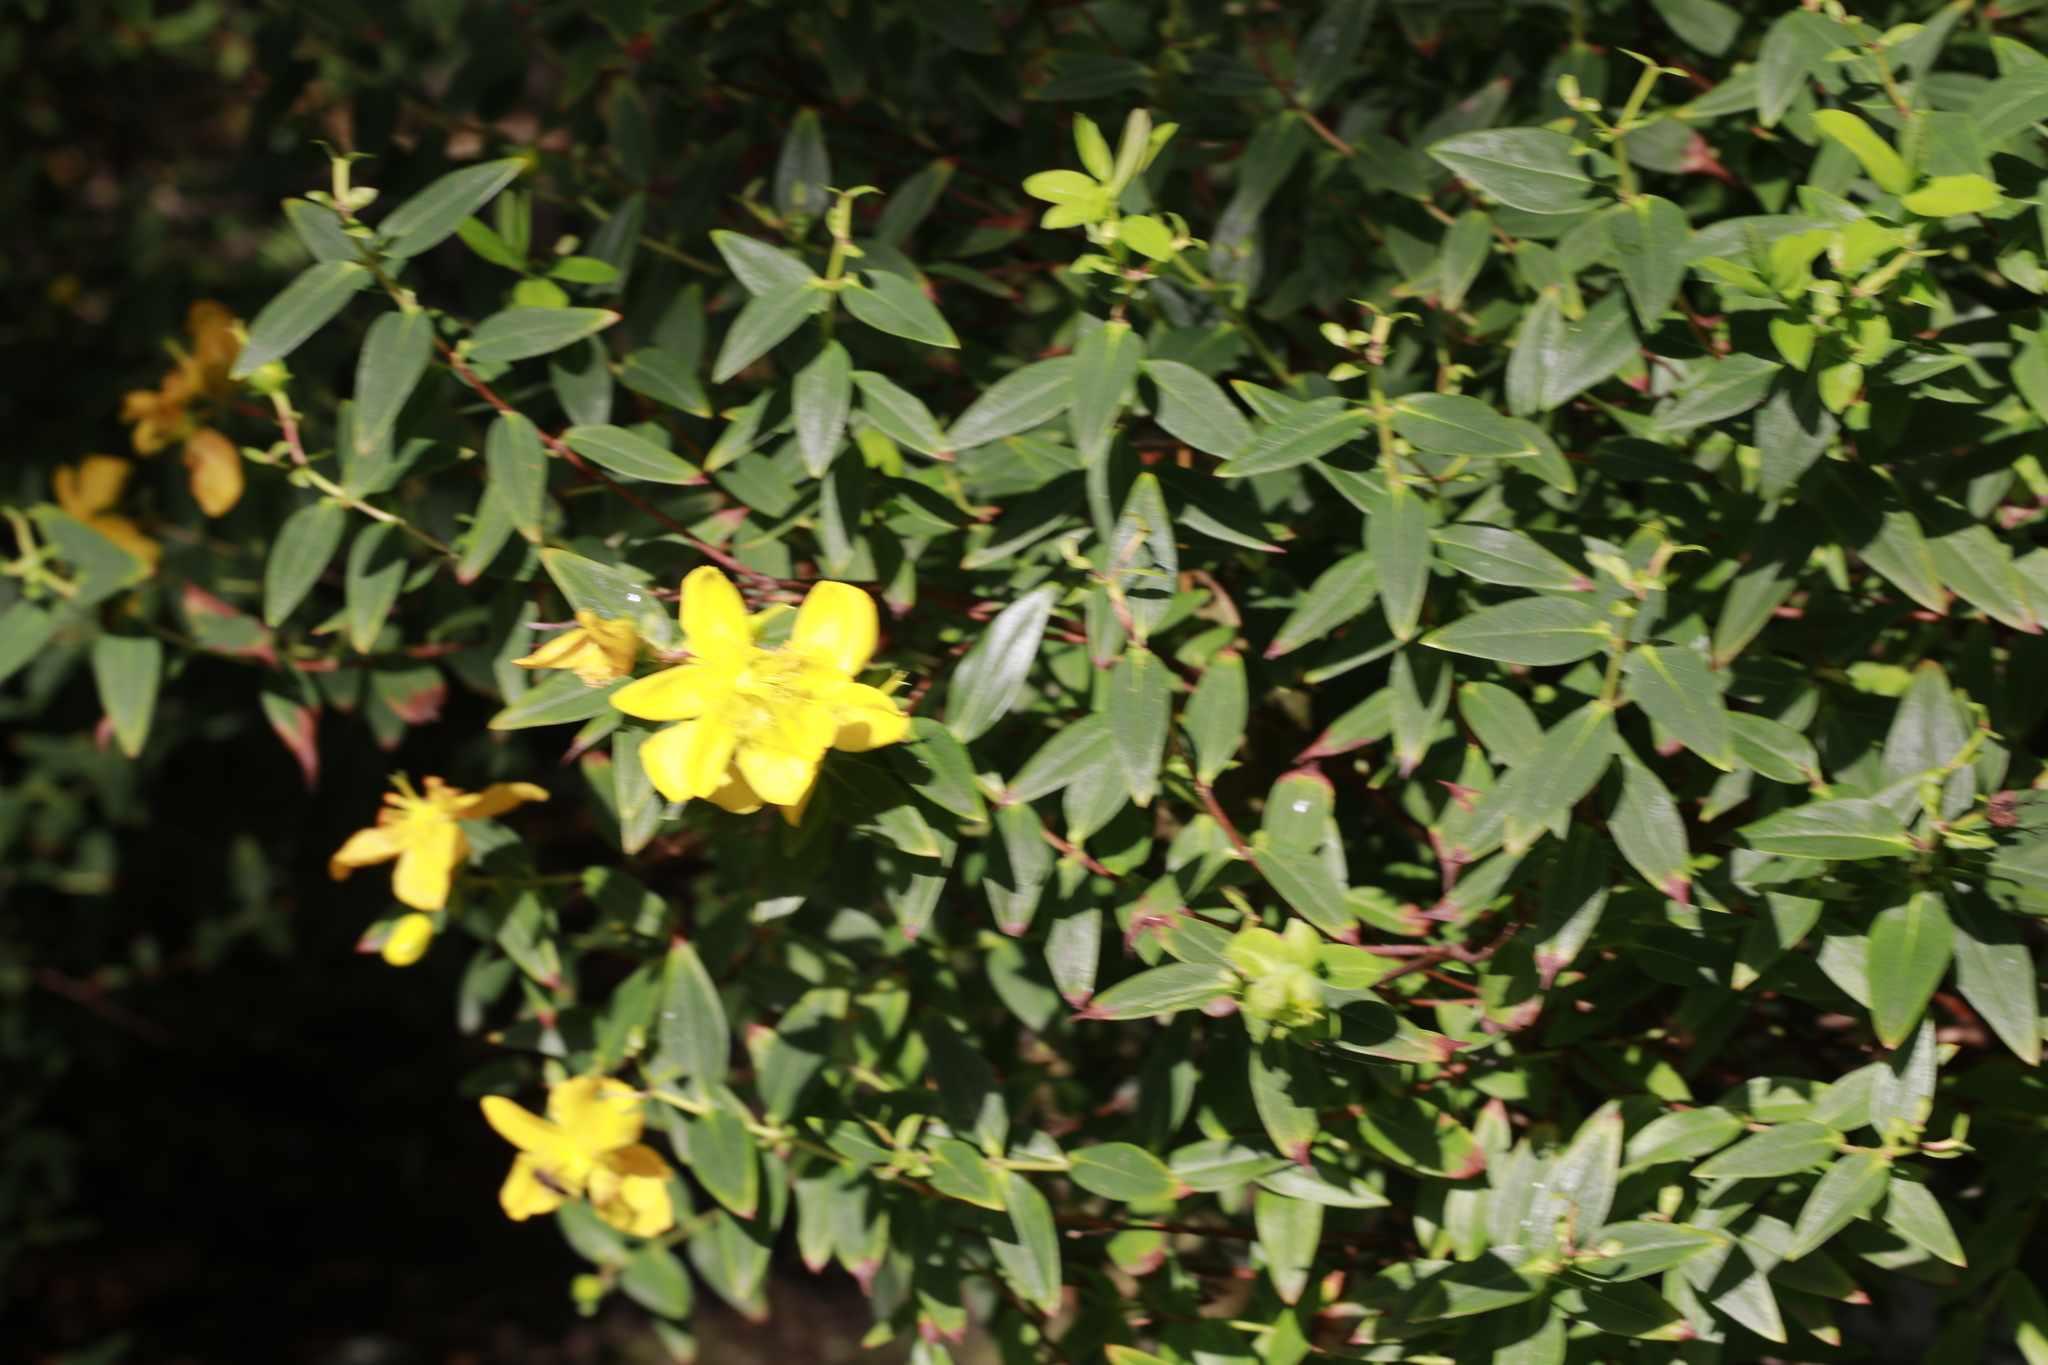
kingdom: Plantae
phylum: Tracheophyta
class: Magnoliopsida
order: Malpighiales
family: Hypericaceae
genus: Hypericum
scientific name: Hypericum hidcoteense
